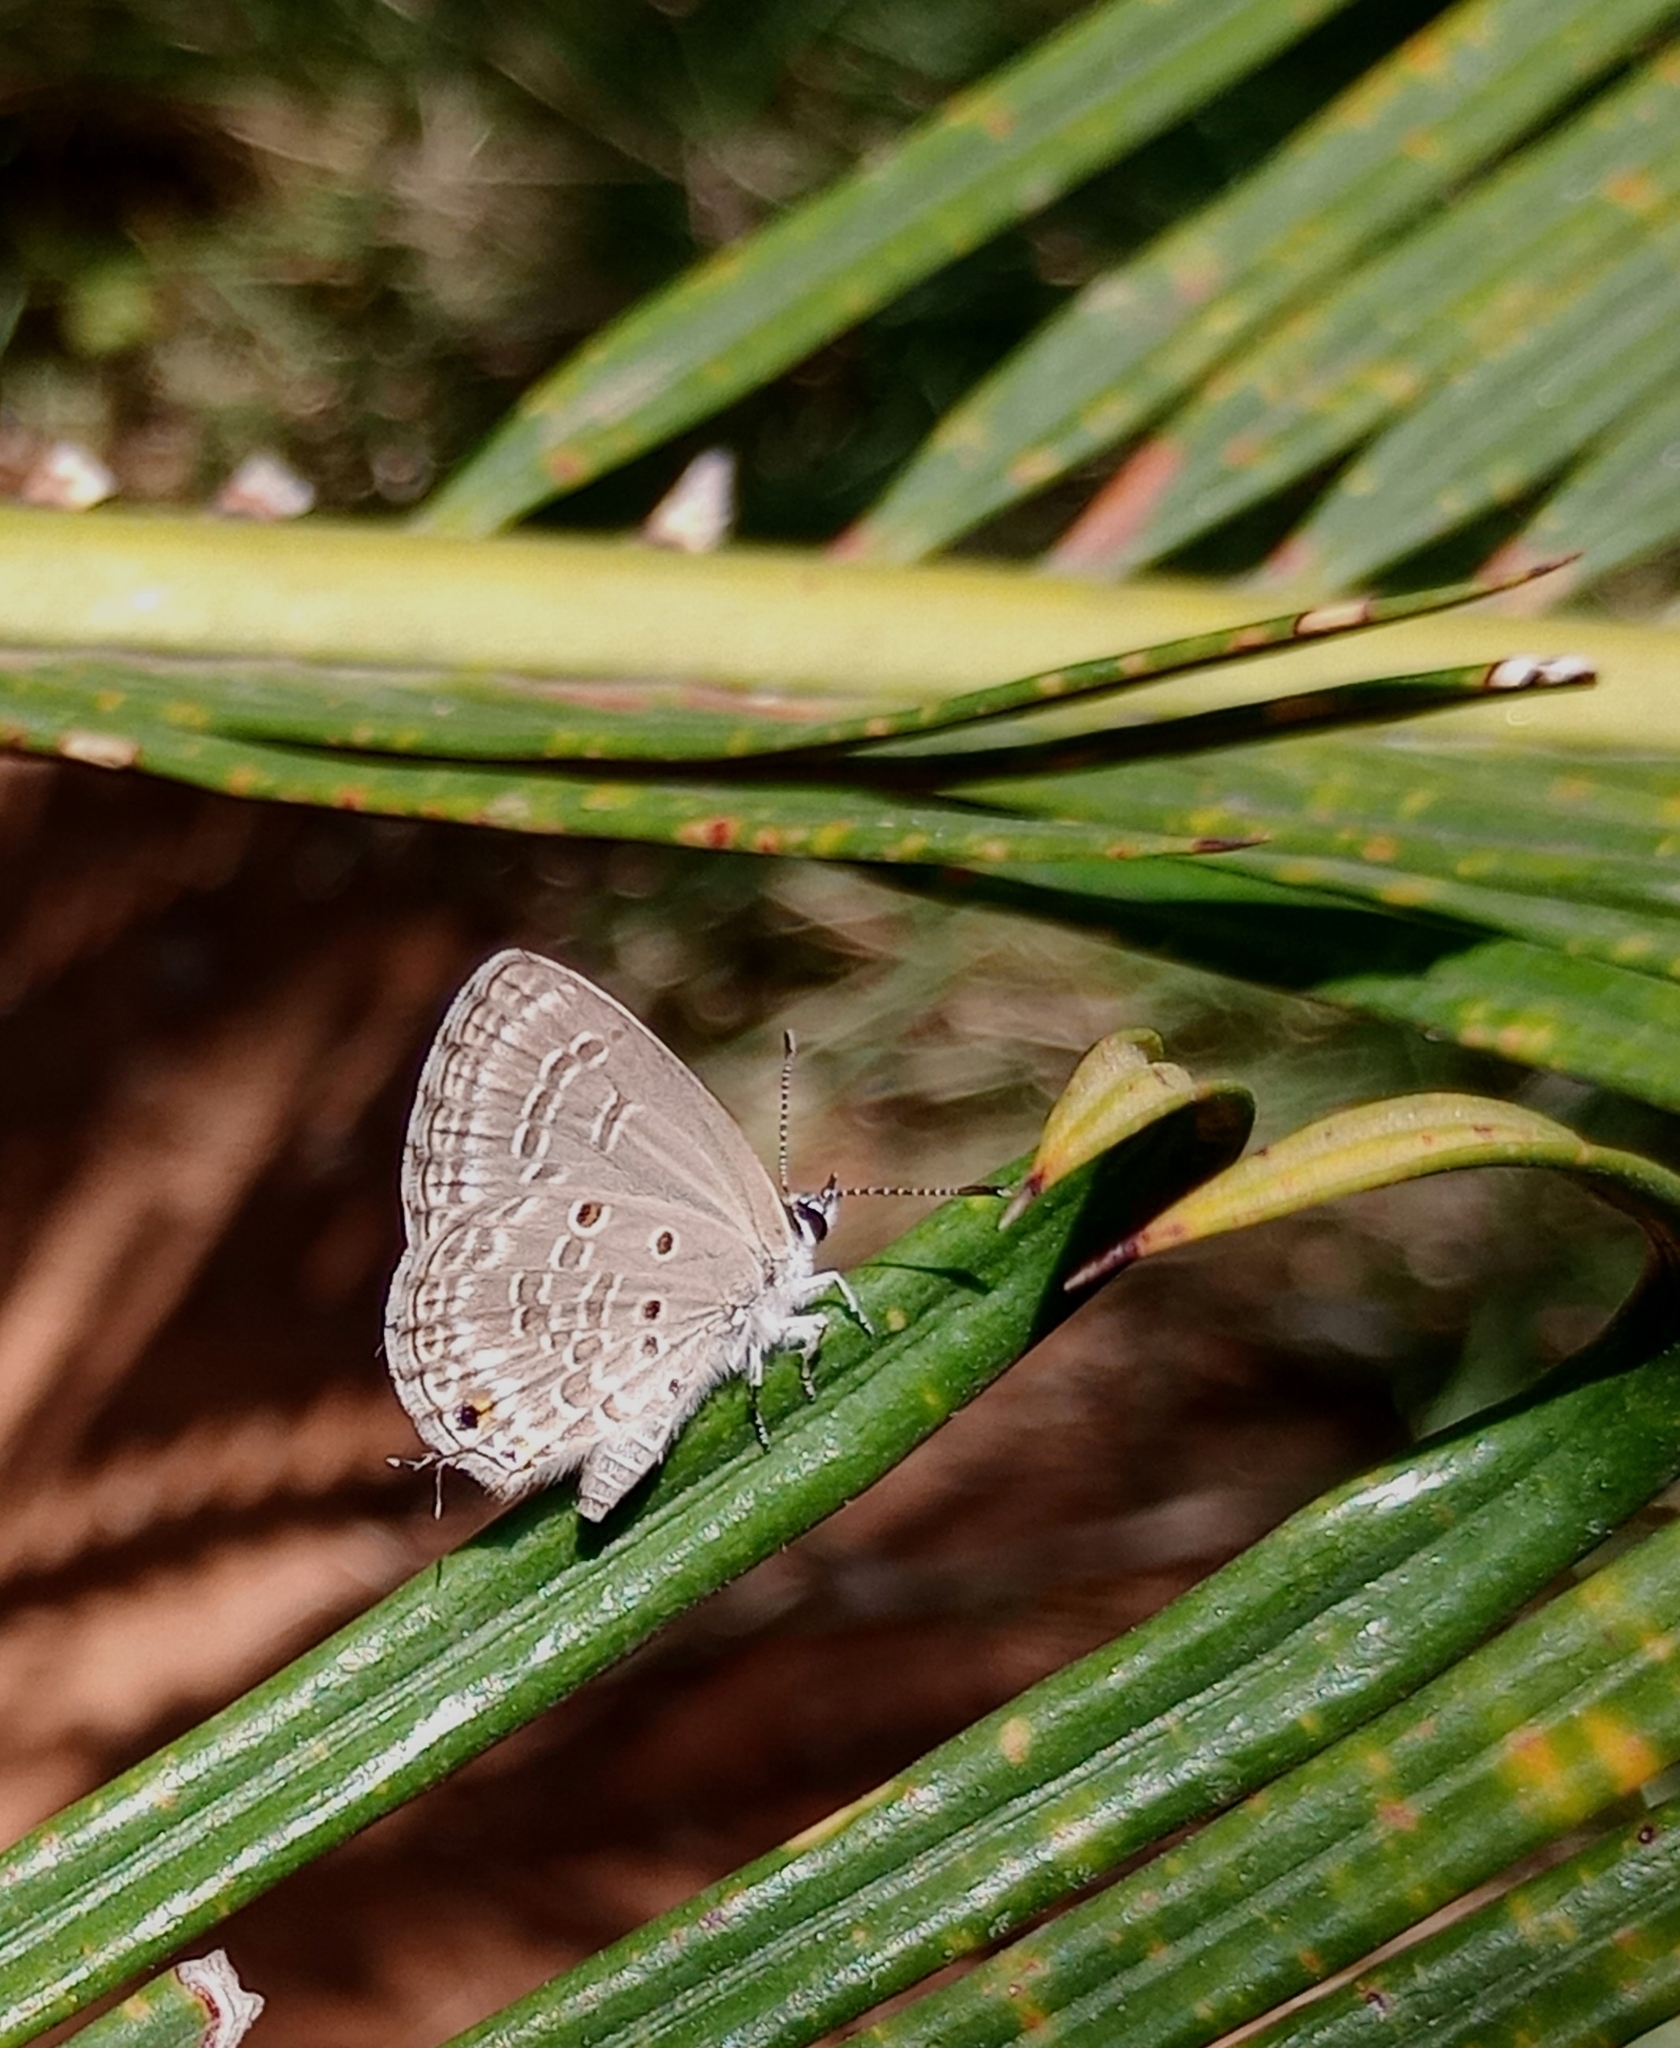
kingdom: Animalia
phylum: Arthropoda
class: Insecta
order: Lepidoptera
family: Lycaenidae
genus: Luthrodes
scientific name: Luthrodes pandava
